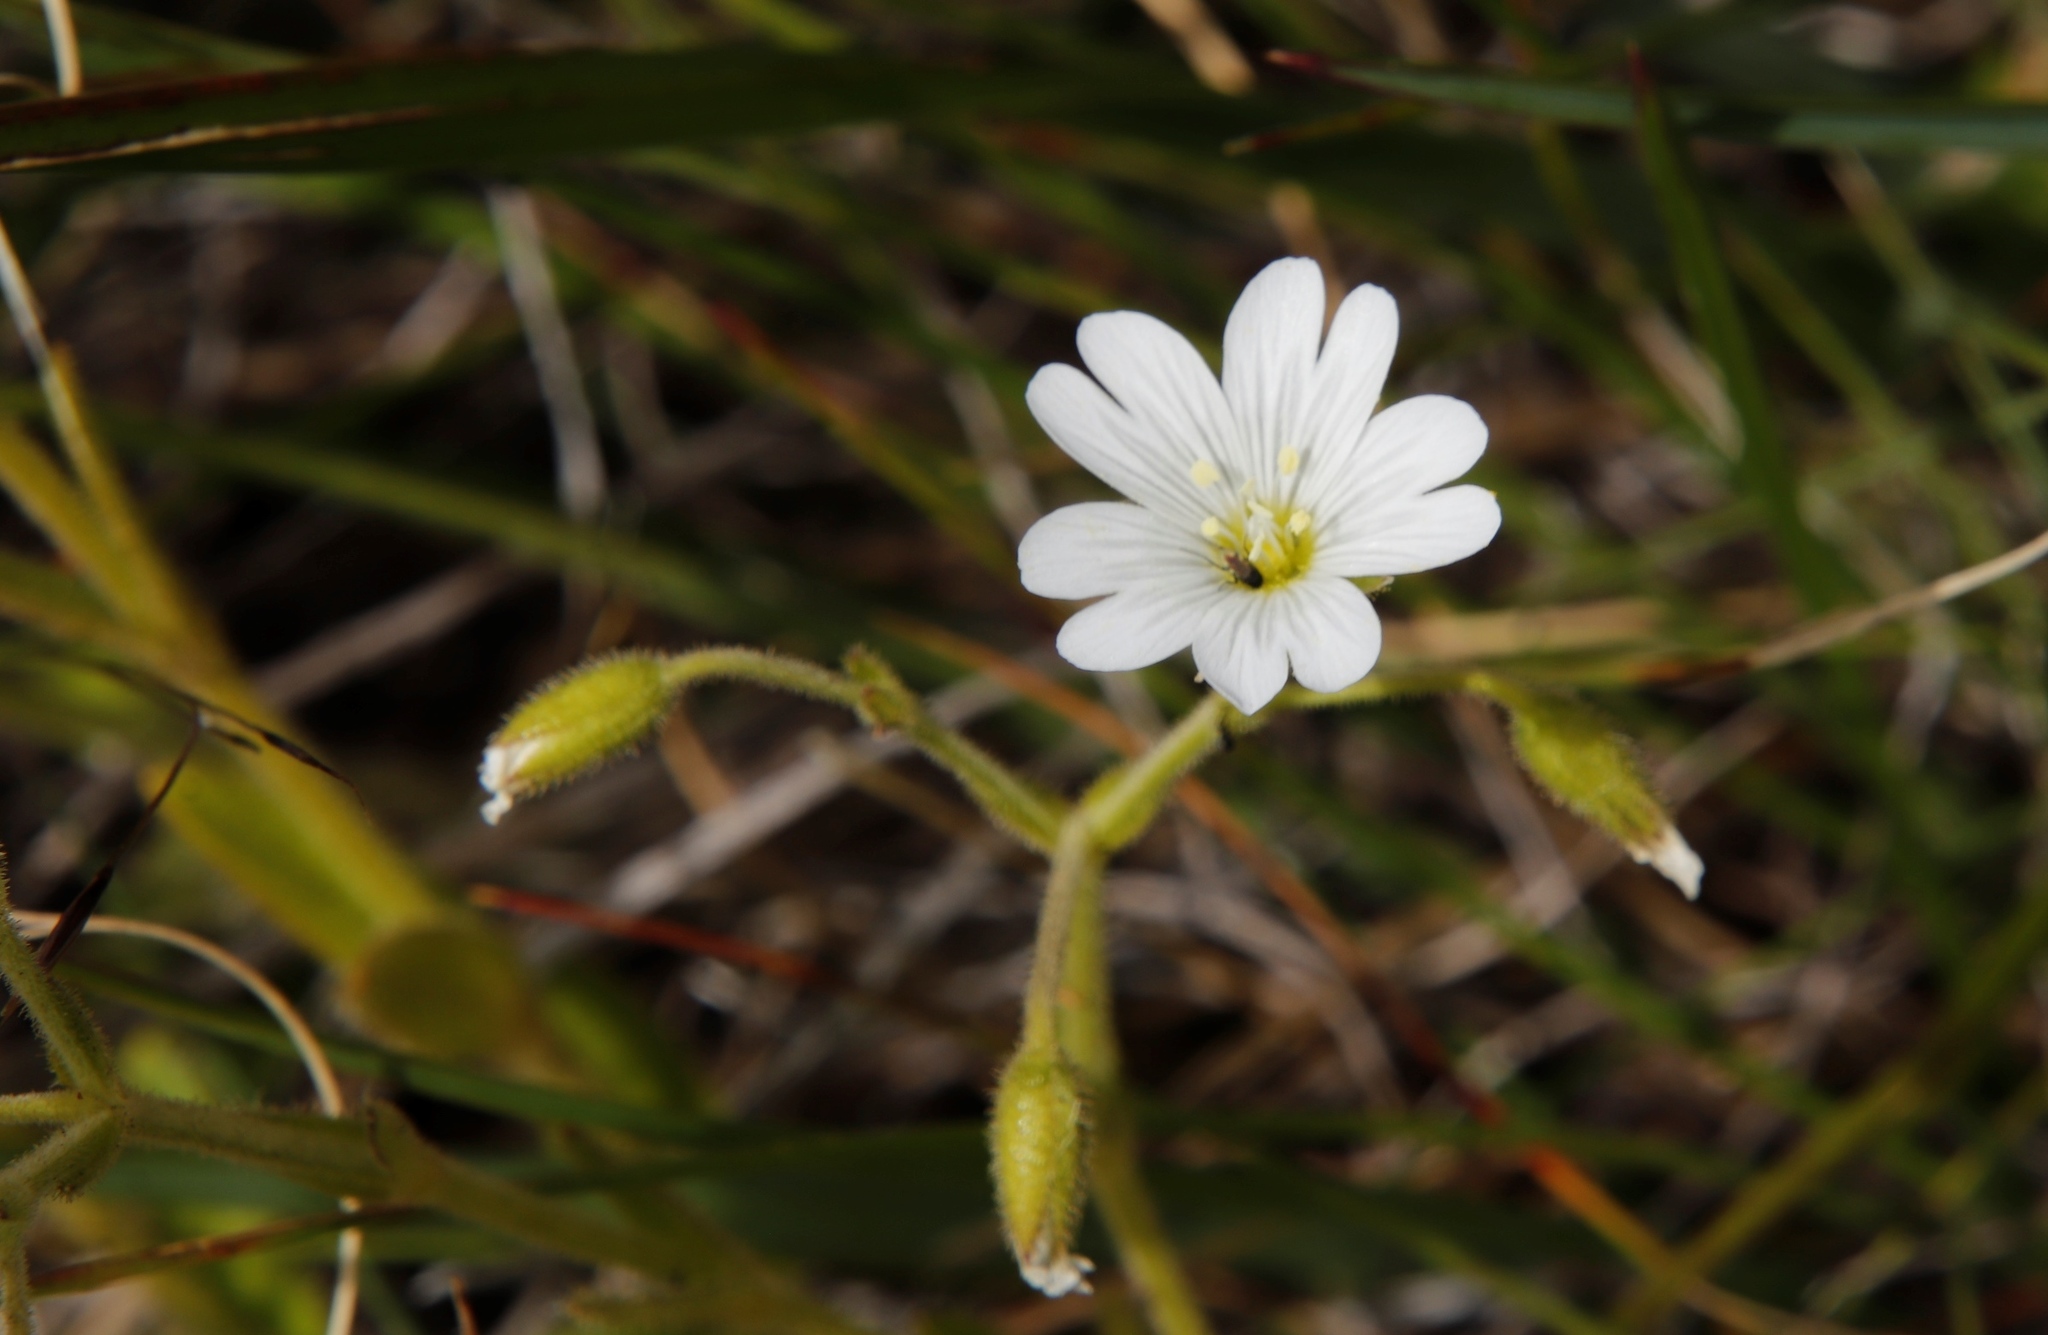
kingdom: Plantae
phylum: Tracheophyta
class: Magnoliopsida
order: Caryophyllales
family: Caryophyllaceae
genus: Cerastium
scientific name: Cerastium arabidis
